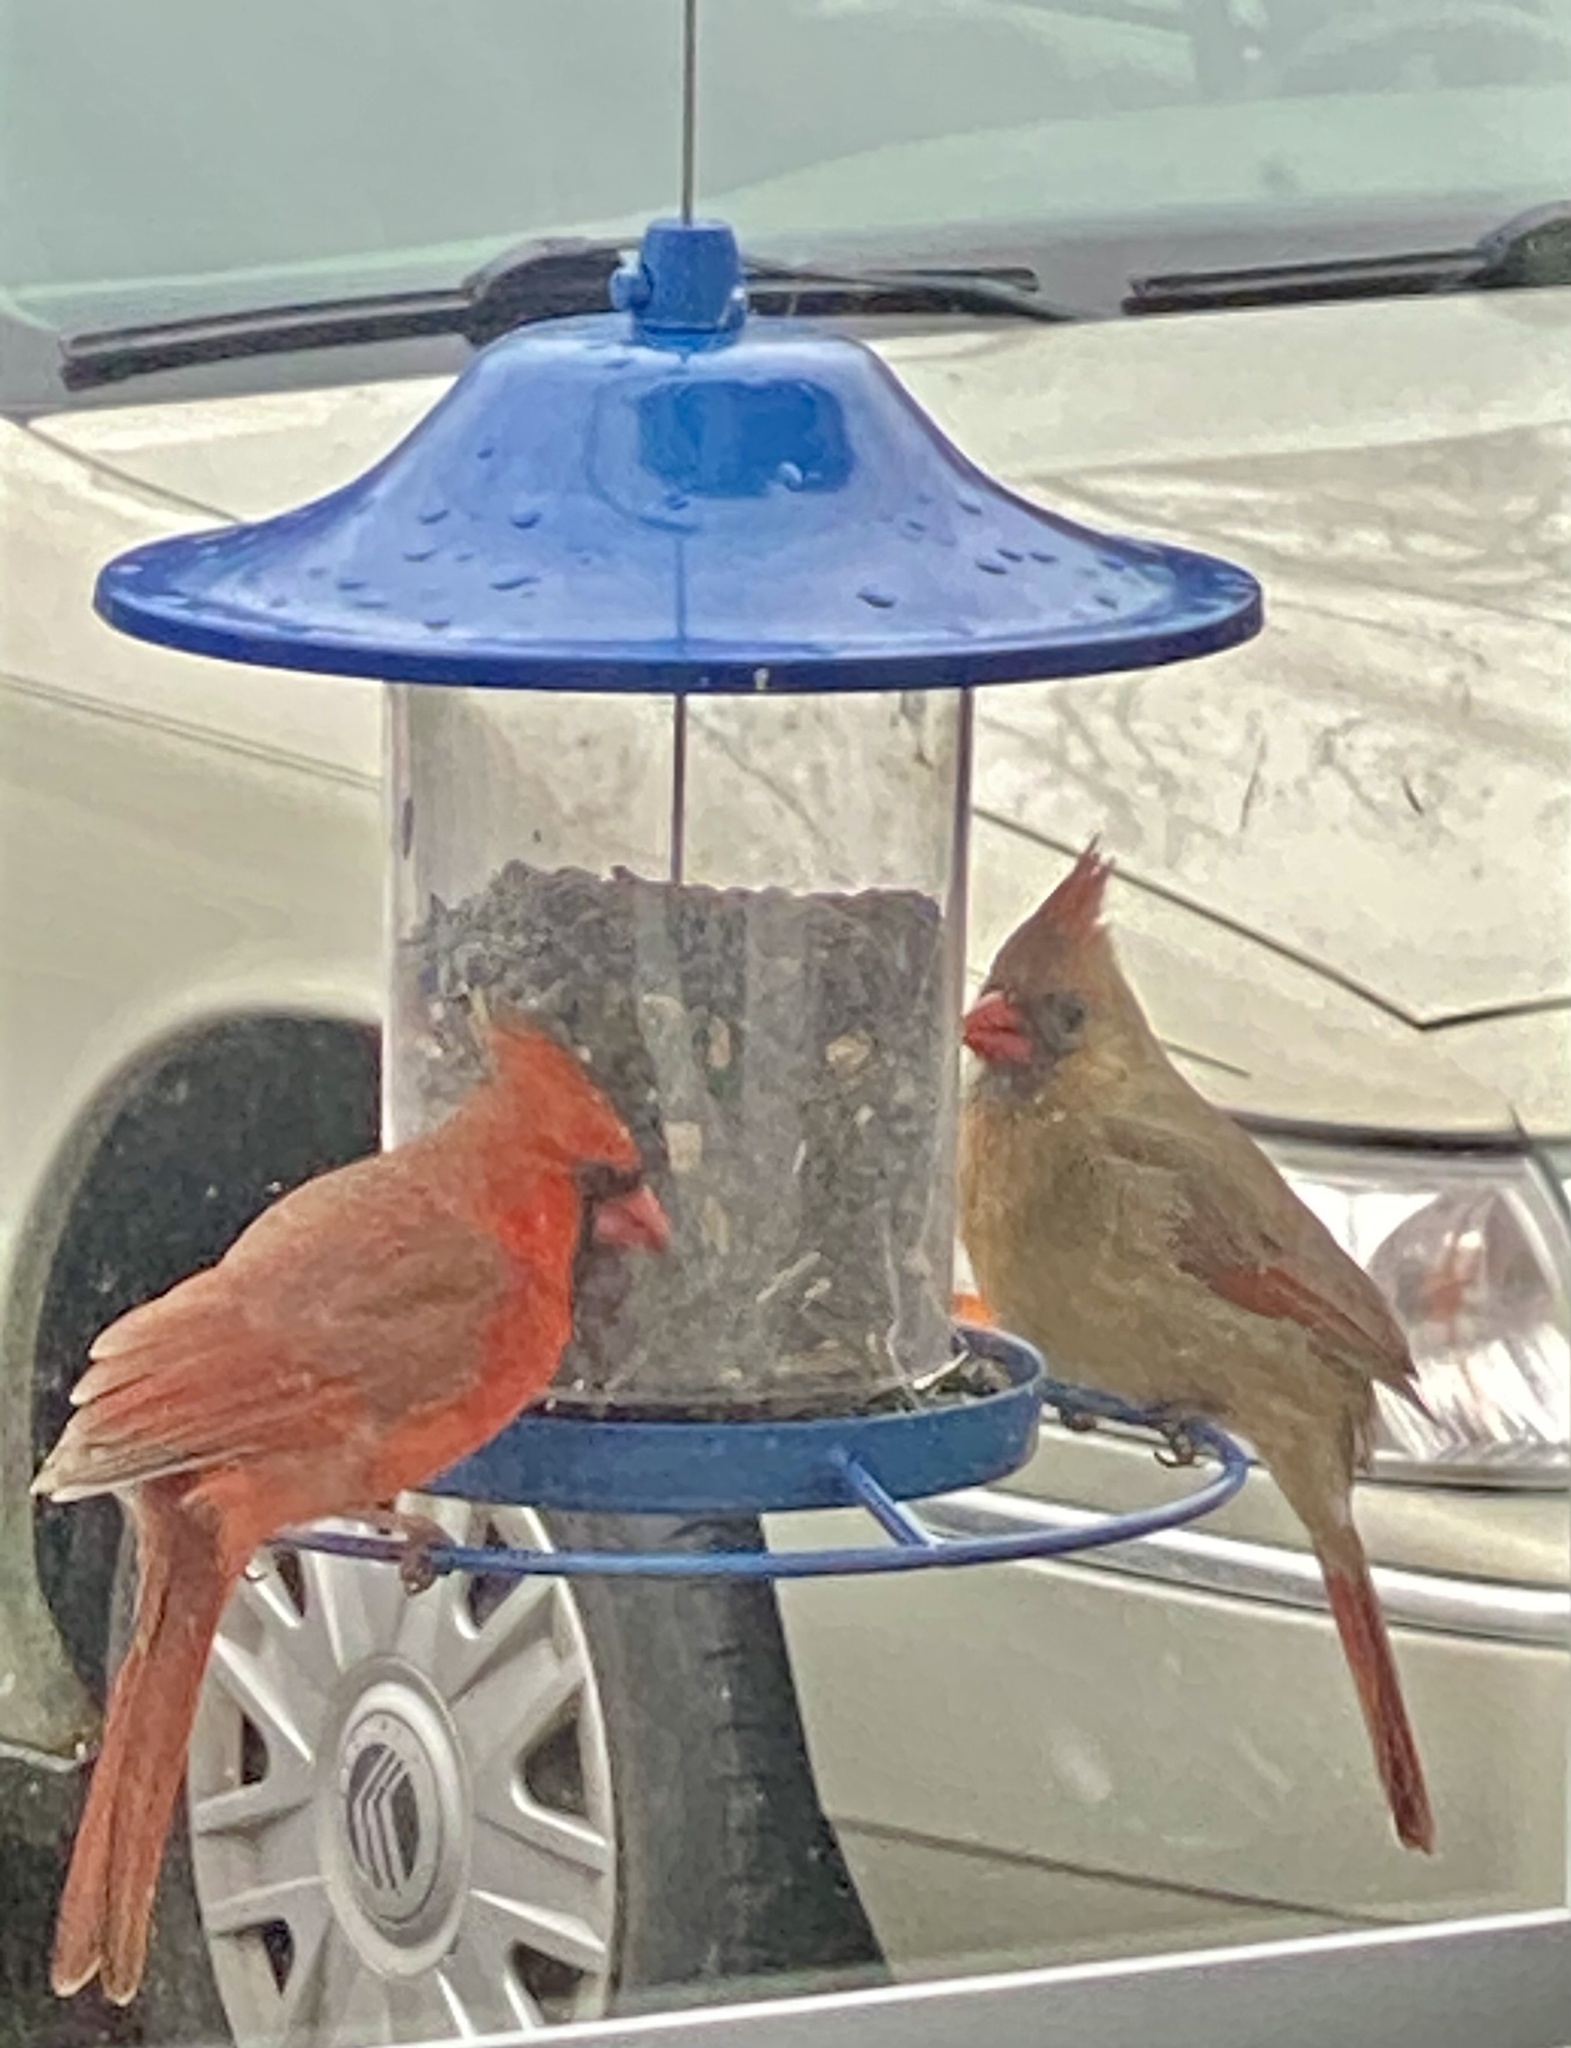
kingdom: Animalia
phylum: Chordata
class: Aves
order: Passeriformes
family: Cardinalidae
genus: Cardinalis
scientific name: Cardinalis cardinalis
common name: Northern cardinal
